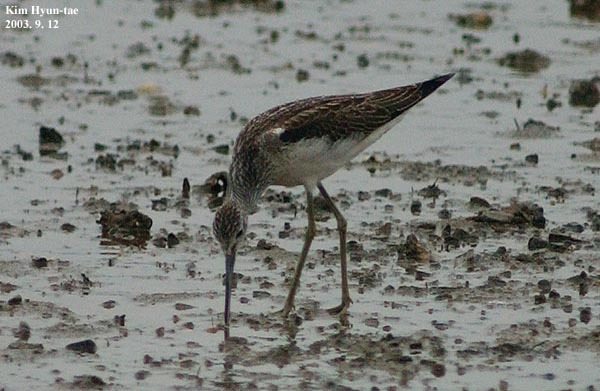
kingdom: Animalia
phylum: Chordata
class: Aves
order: Charadriiformes
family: Scolopacidae
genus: Tringa
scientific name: Tringa stagnatilis
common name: Marsh sandpiper
